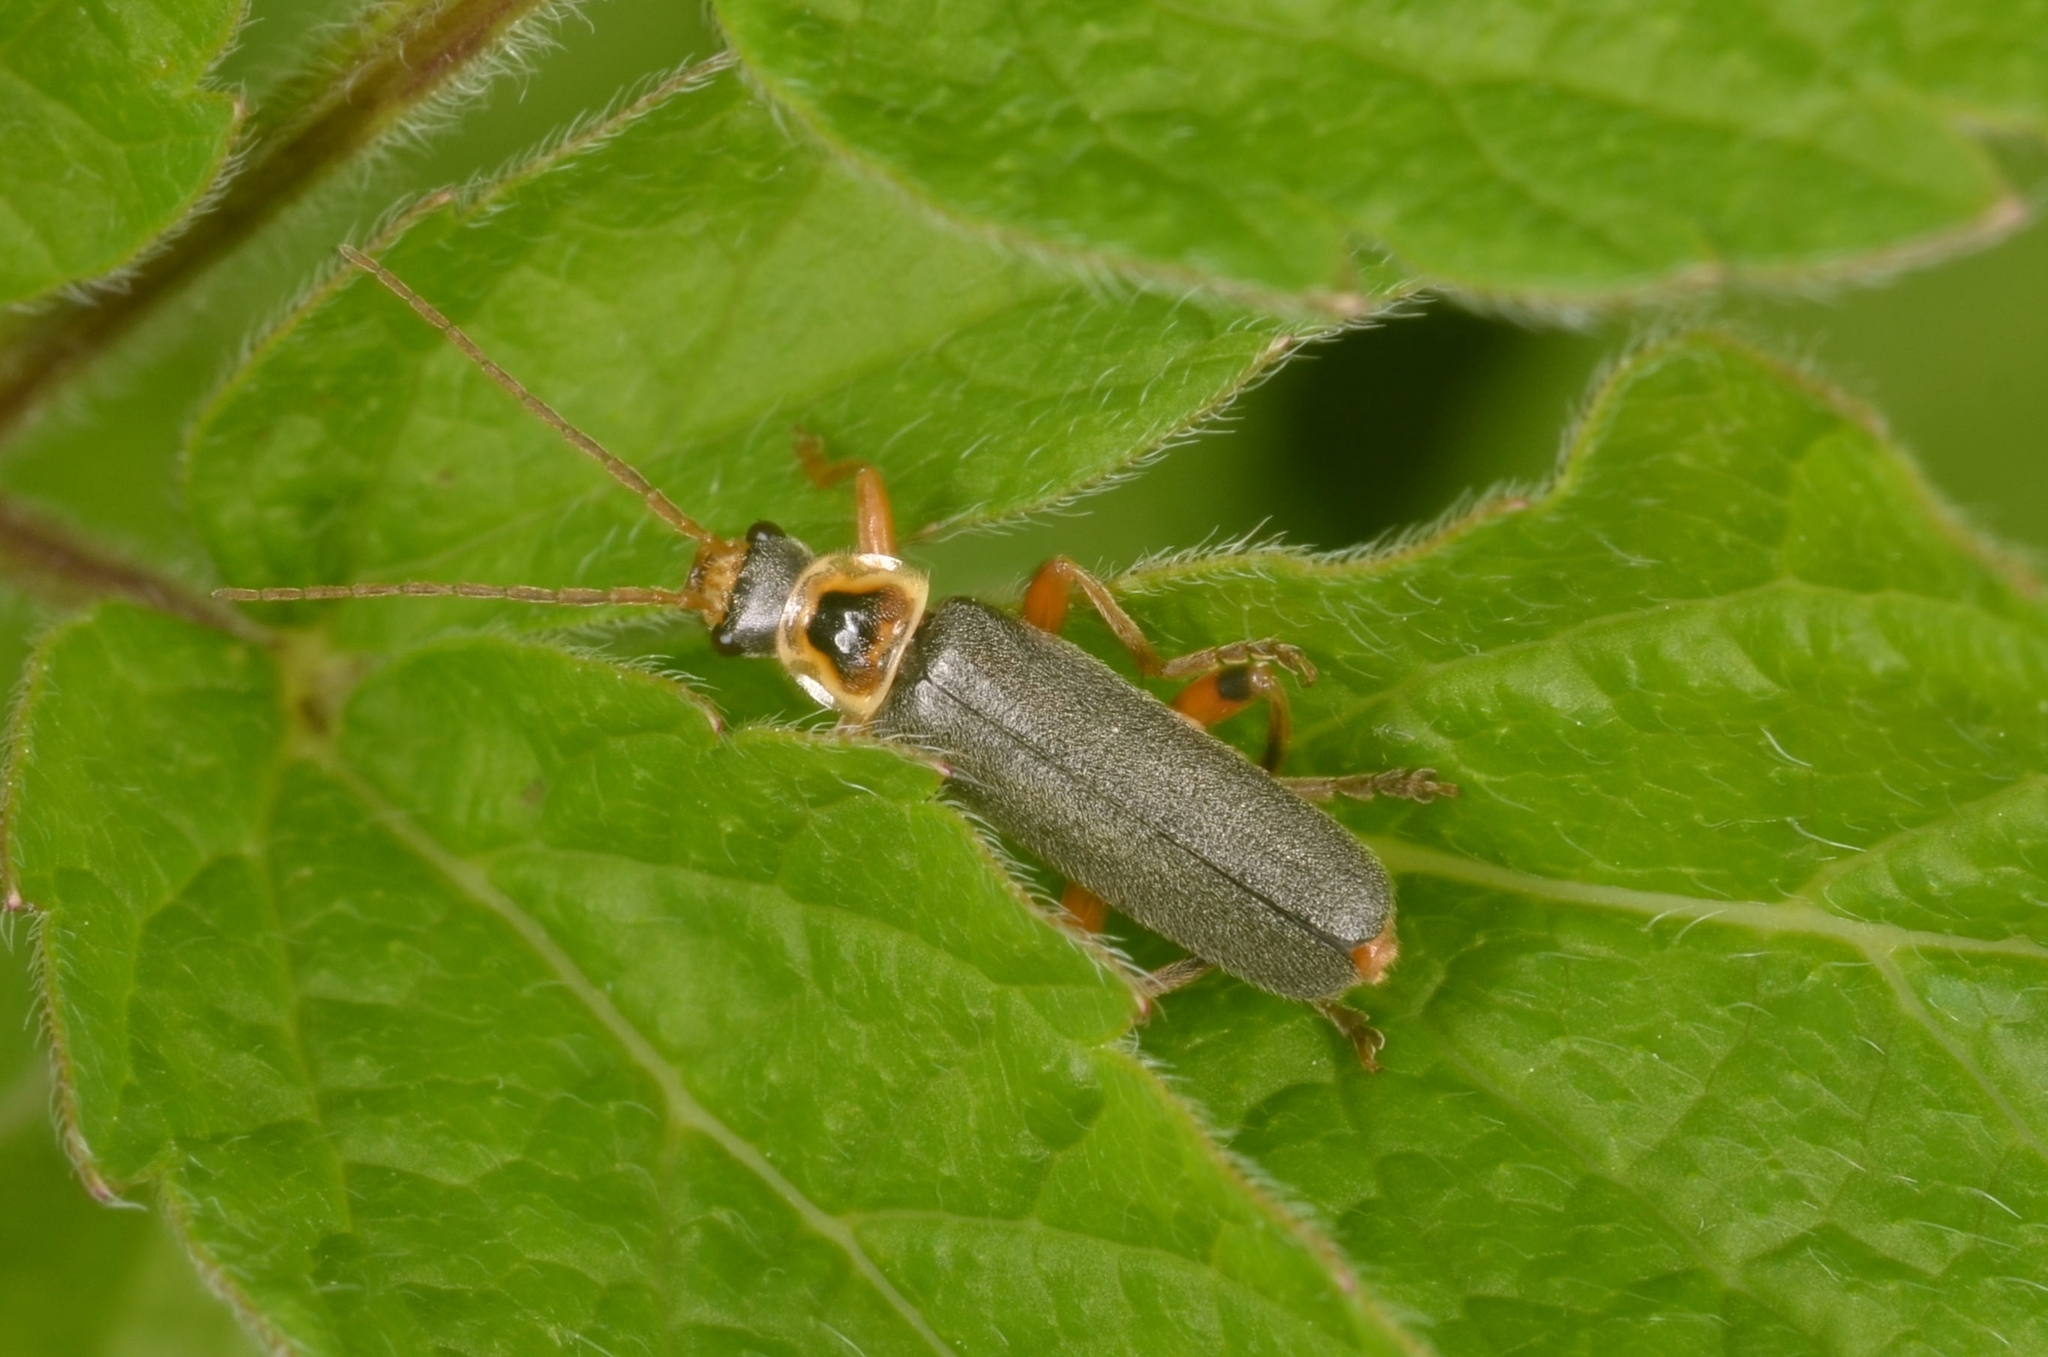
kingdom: Animalia
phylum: Arthropoda
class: Insecta
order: Coleoptera
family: Cantharidae
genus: Cantharis
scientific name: Cantharis nigricans
